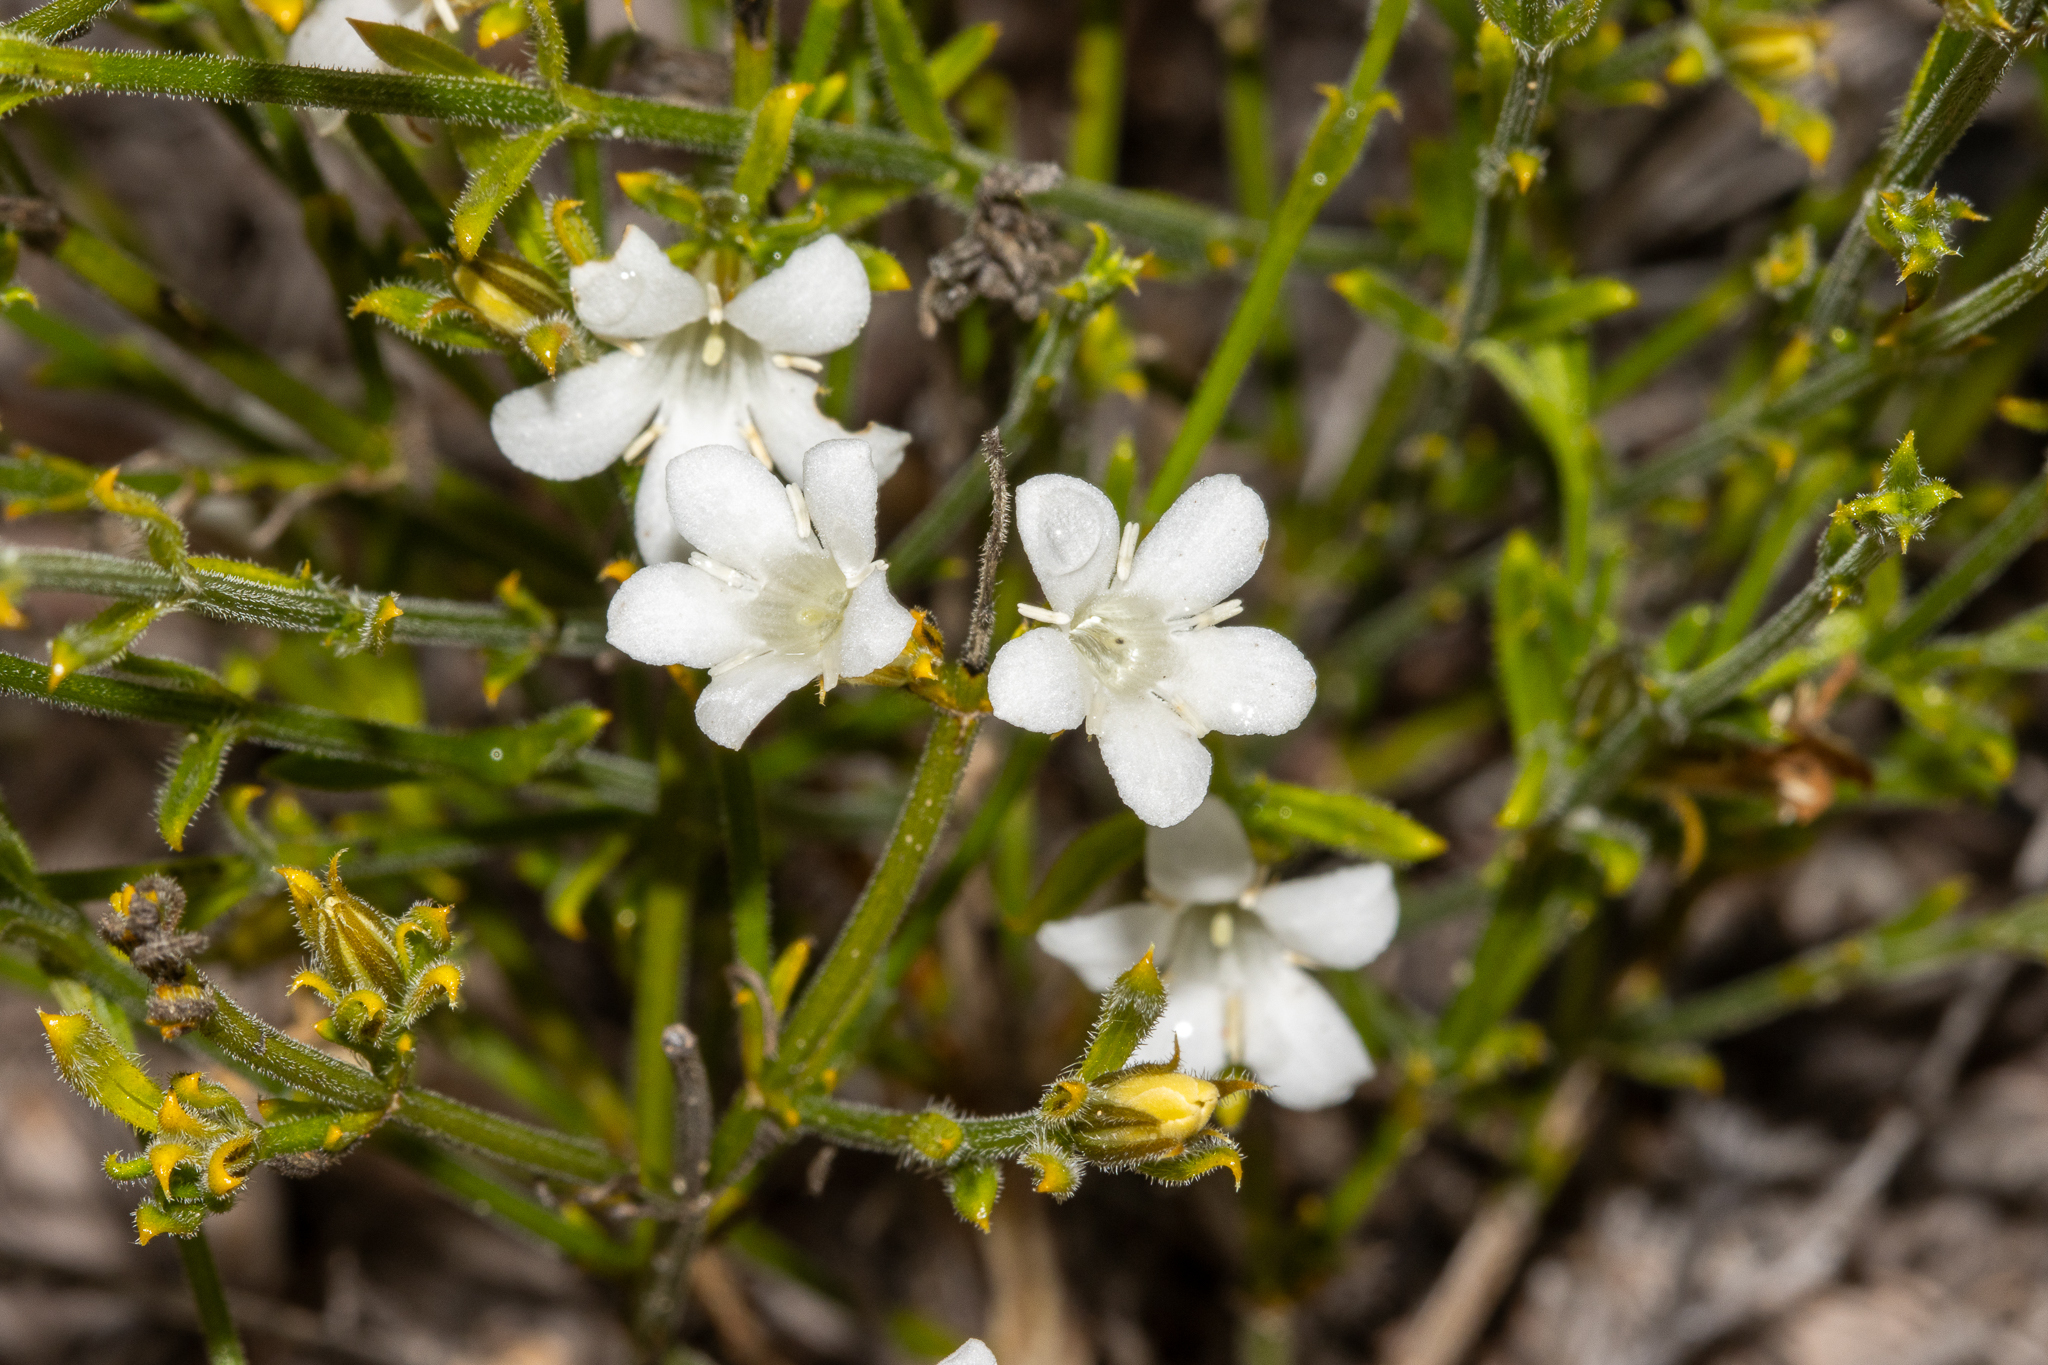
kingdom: Plantae
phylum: Tracheophyta
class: Magnoliopsida
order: Gentianales
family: Loganiaceae
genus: Orianthera
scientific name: Orianthera spermacocea
